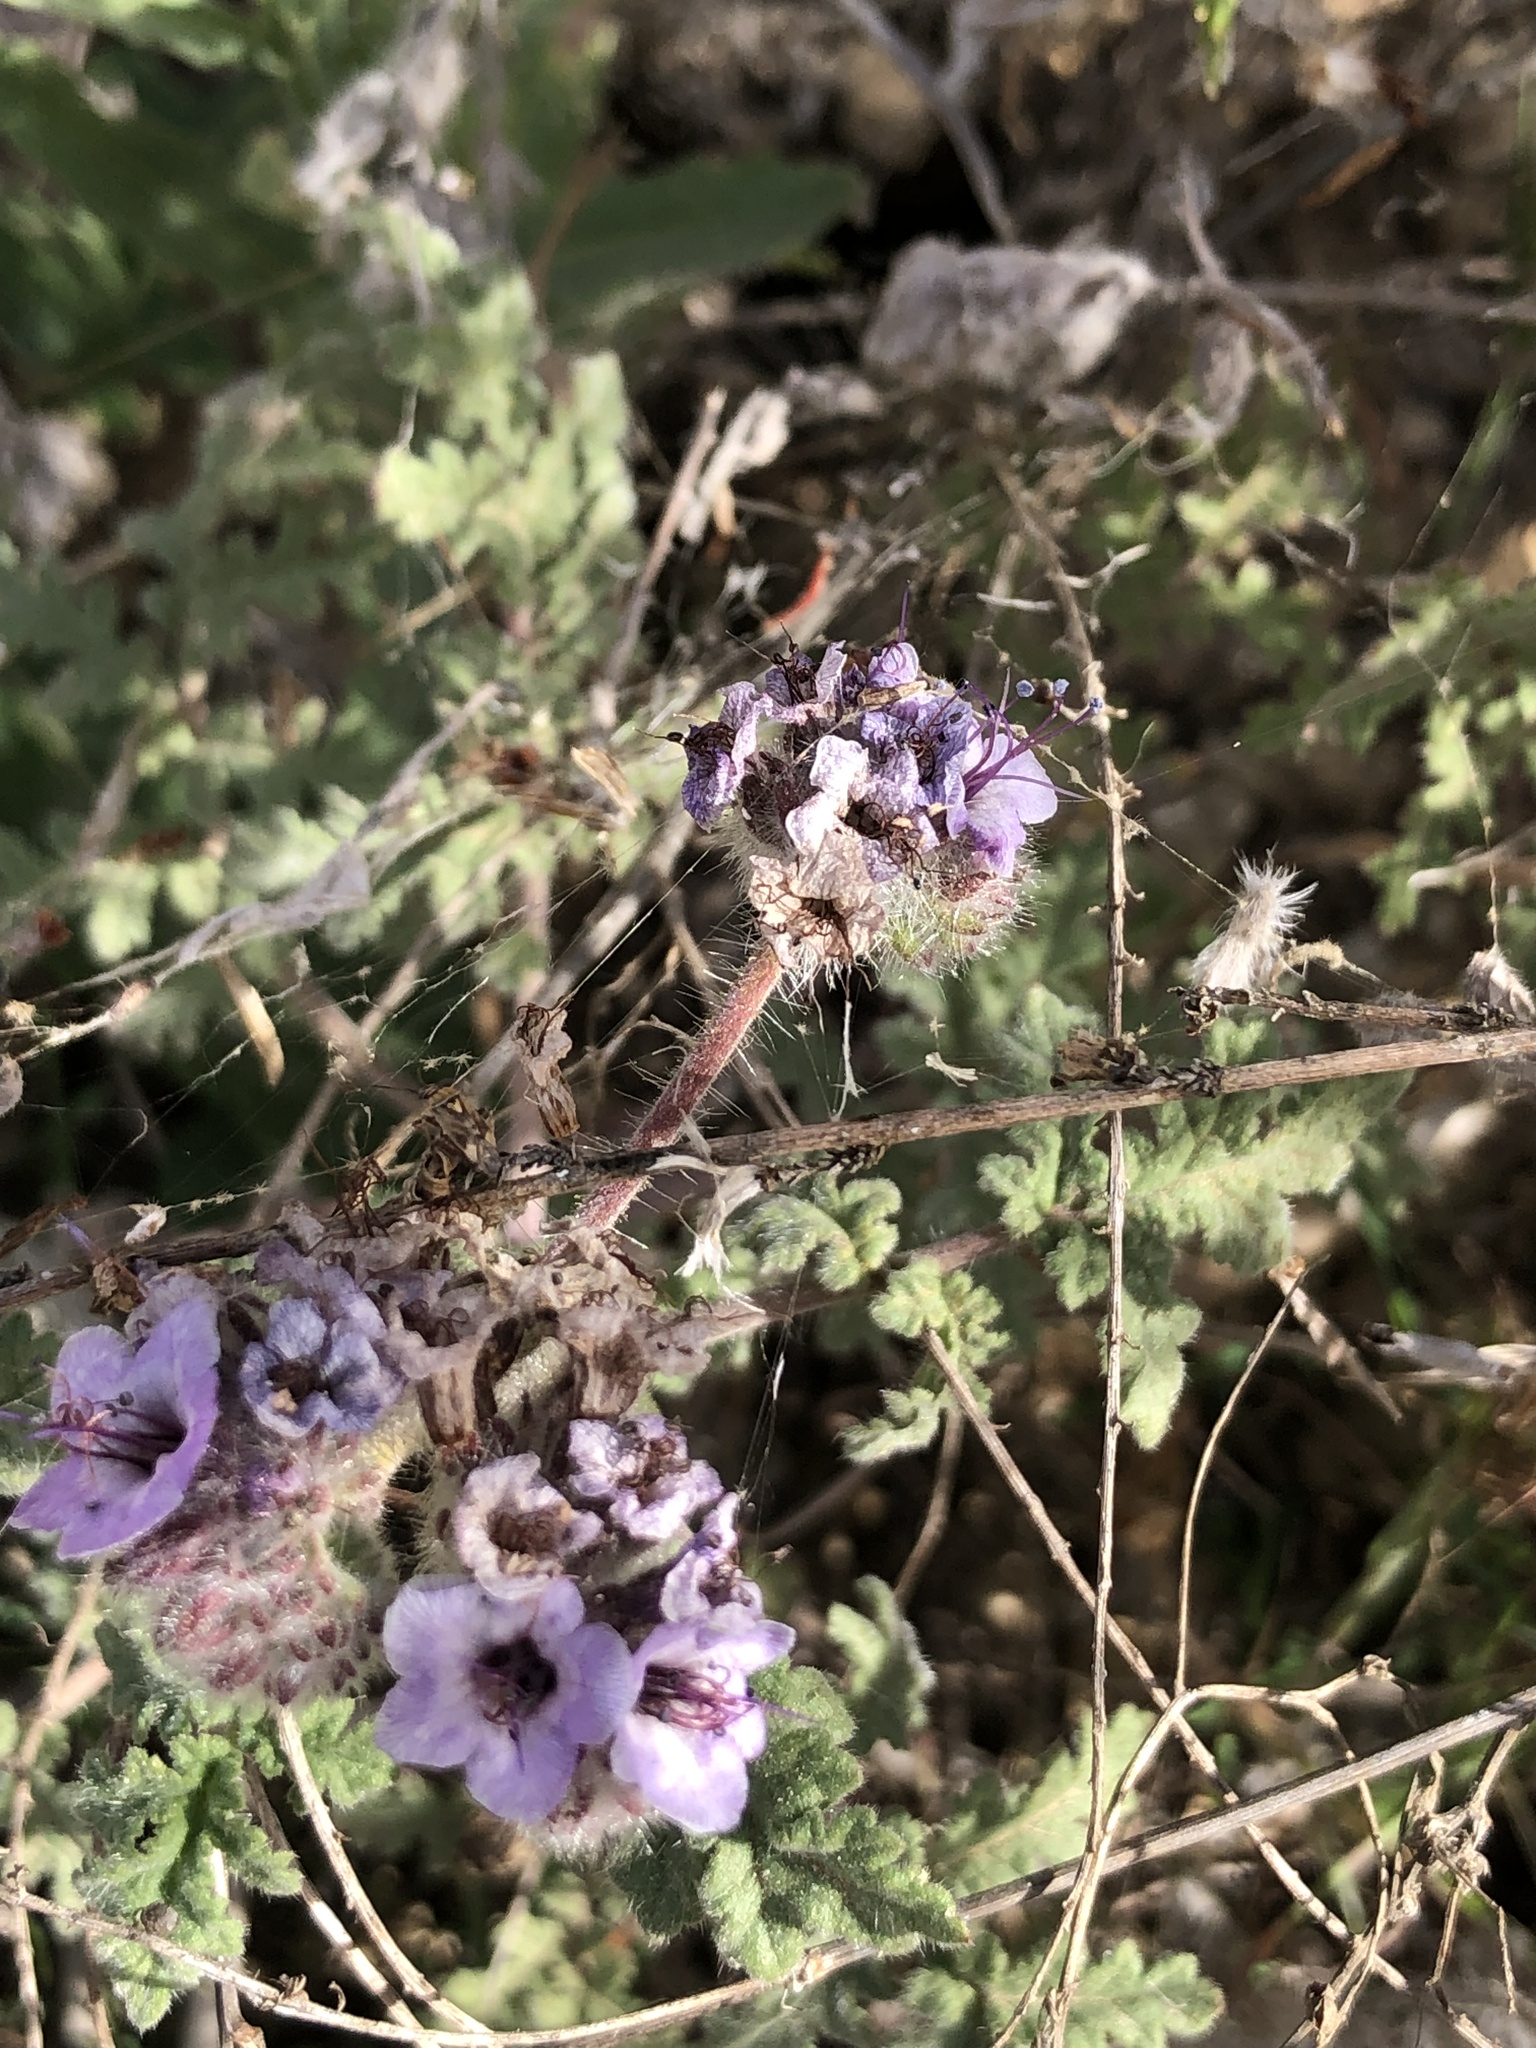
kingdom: Plantae
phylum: Tracheophyta
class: Magnoliopsida
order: Boraginales
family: Hydrophyllaceae
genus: Phacelia
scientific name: Phacelia hubbyi
